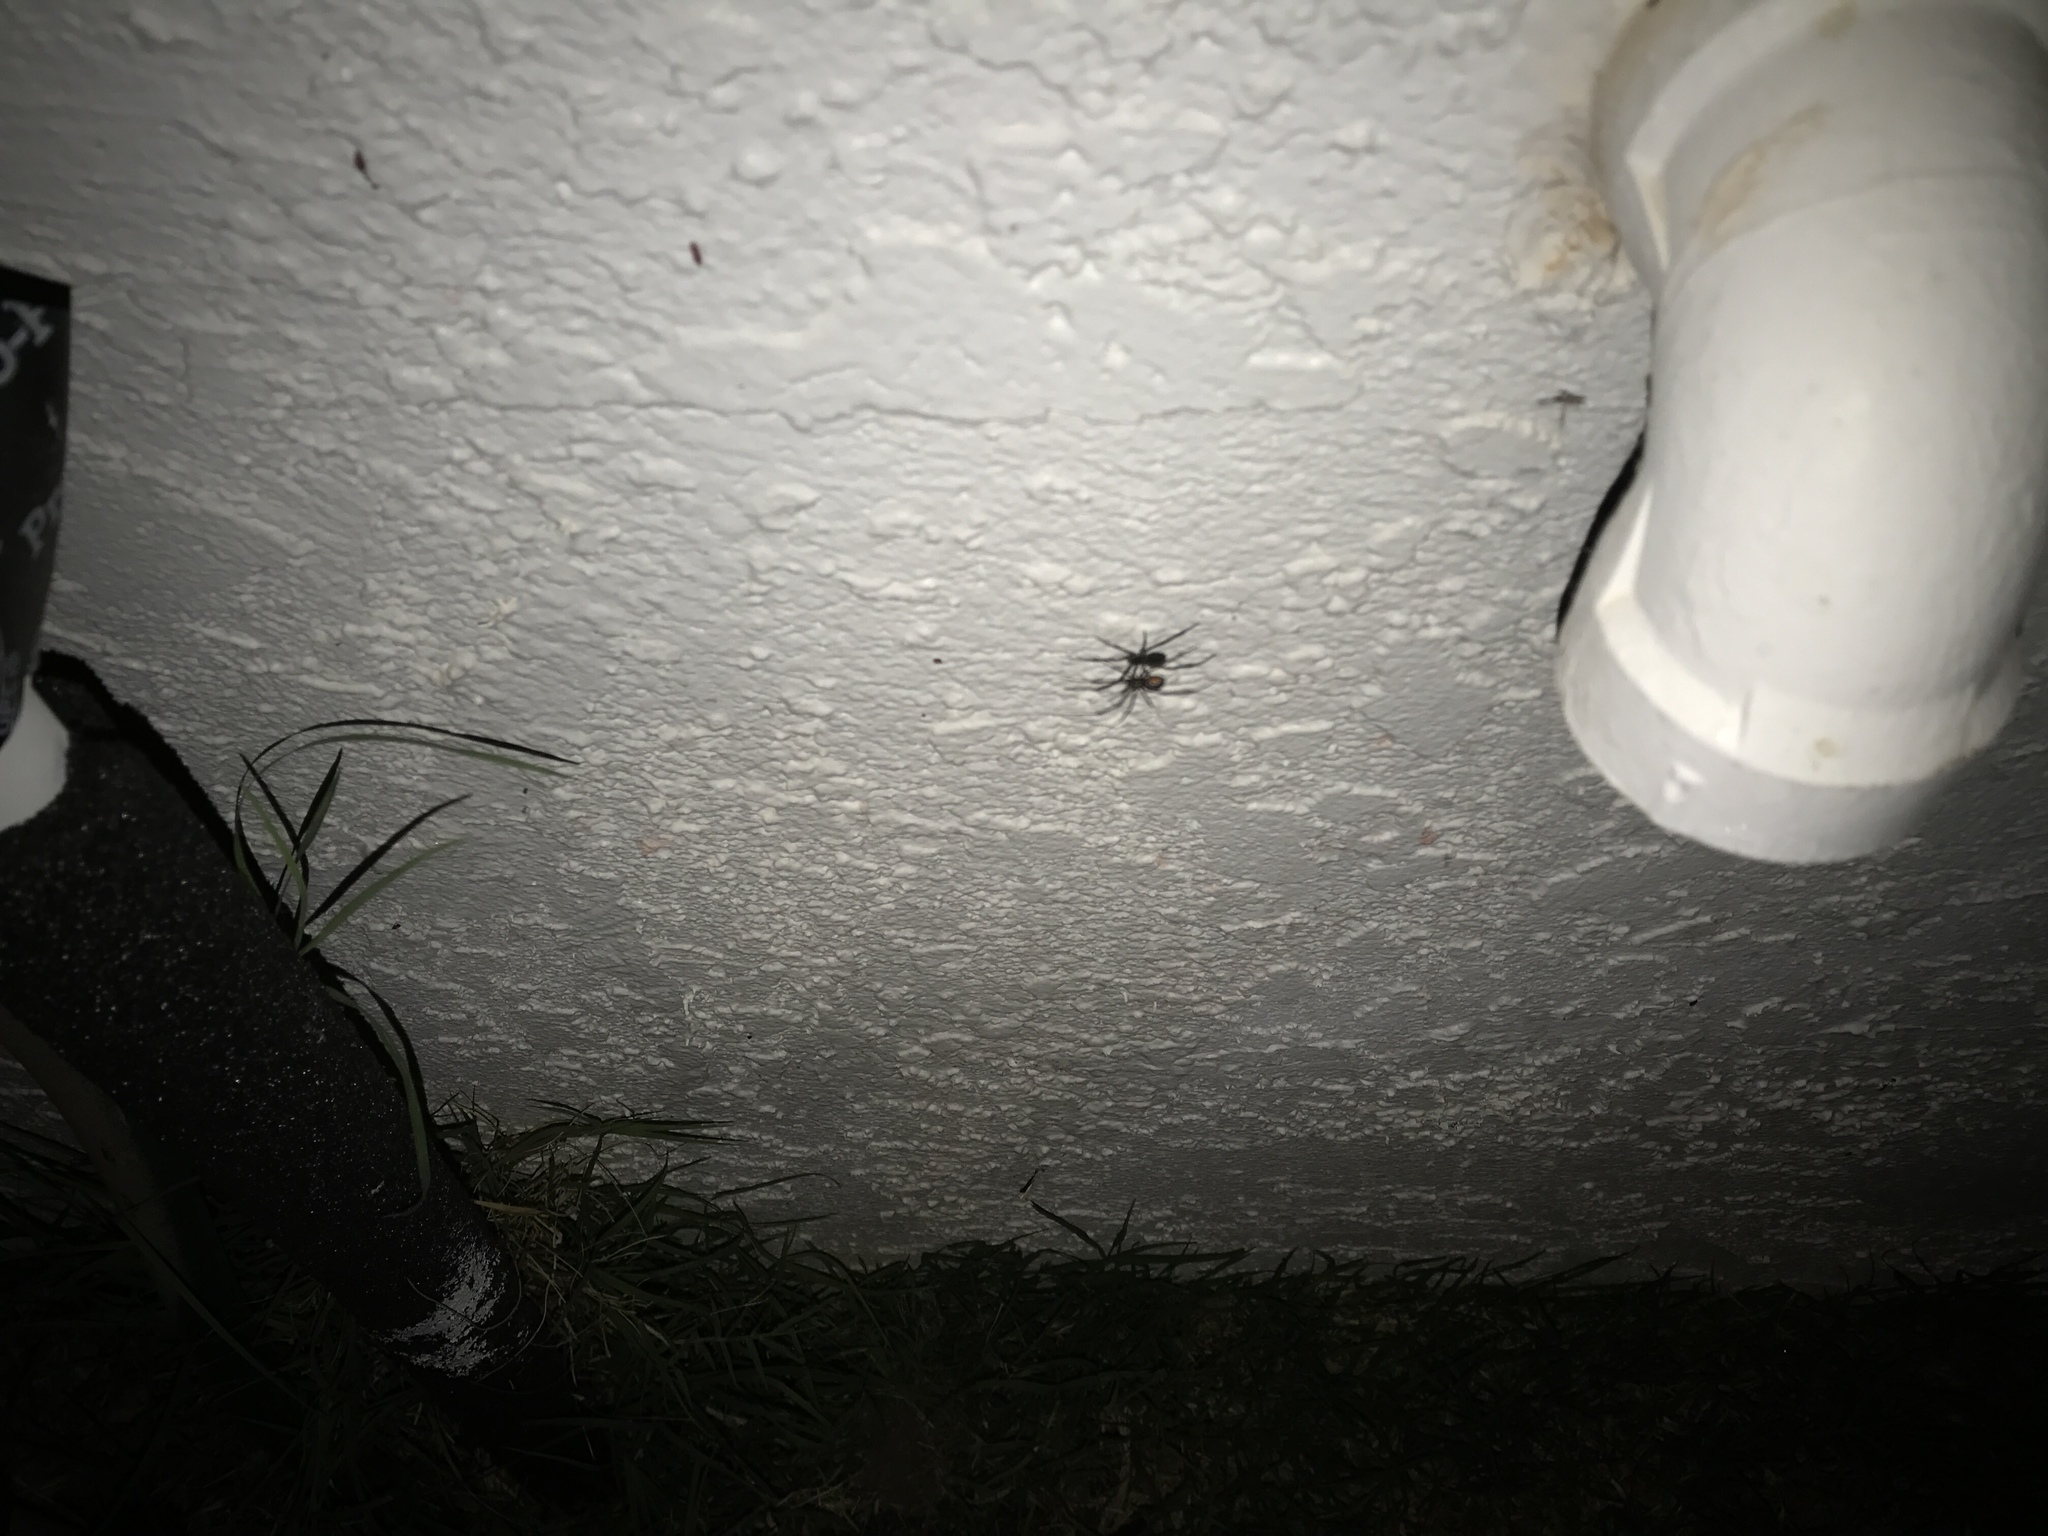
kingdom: Animalia
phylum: Arthropoda
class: Arachnida
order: Araneae
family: Theridiidae
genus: Latrodectus
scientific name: Latrodectus hesperus
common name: Western black widow
